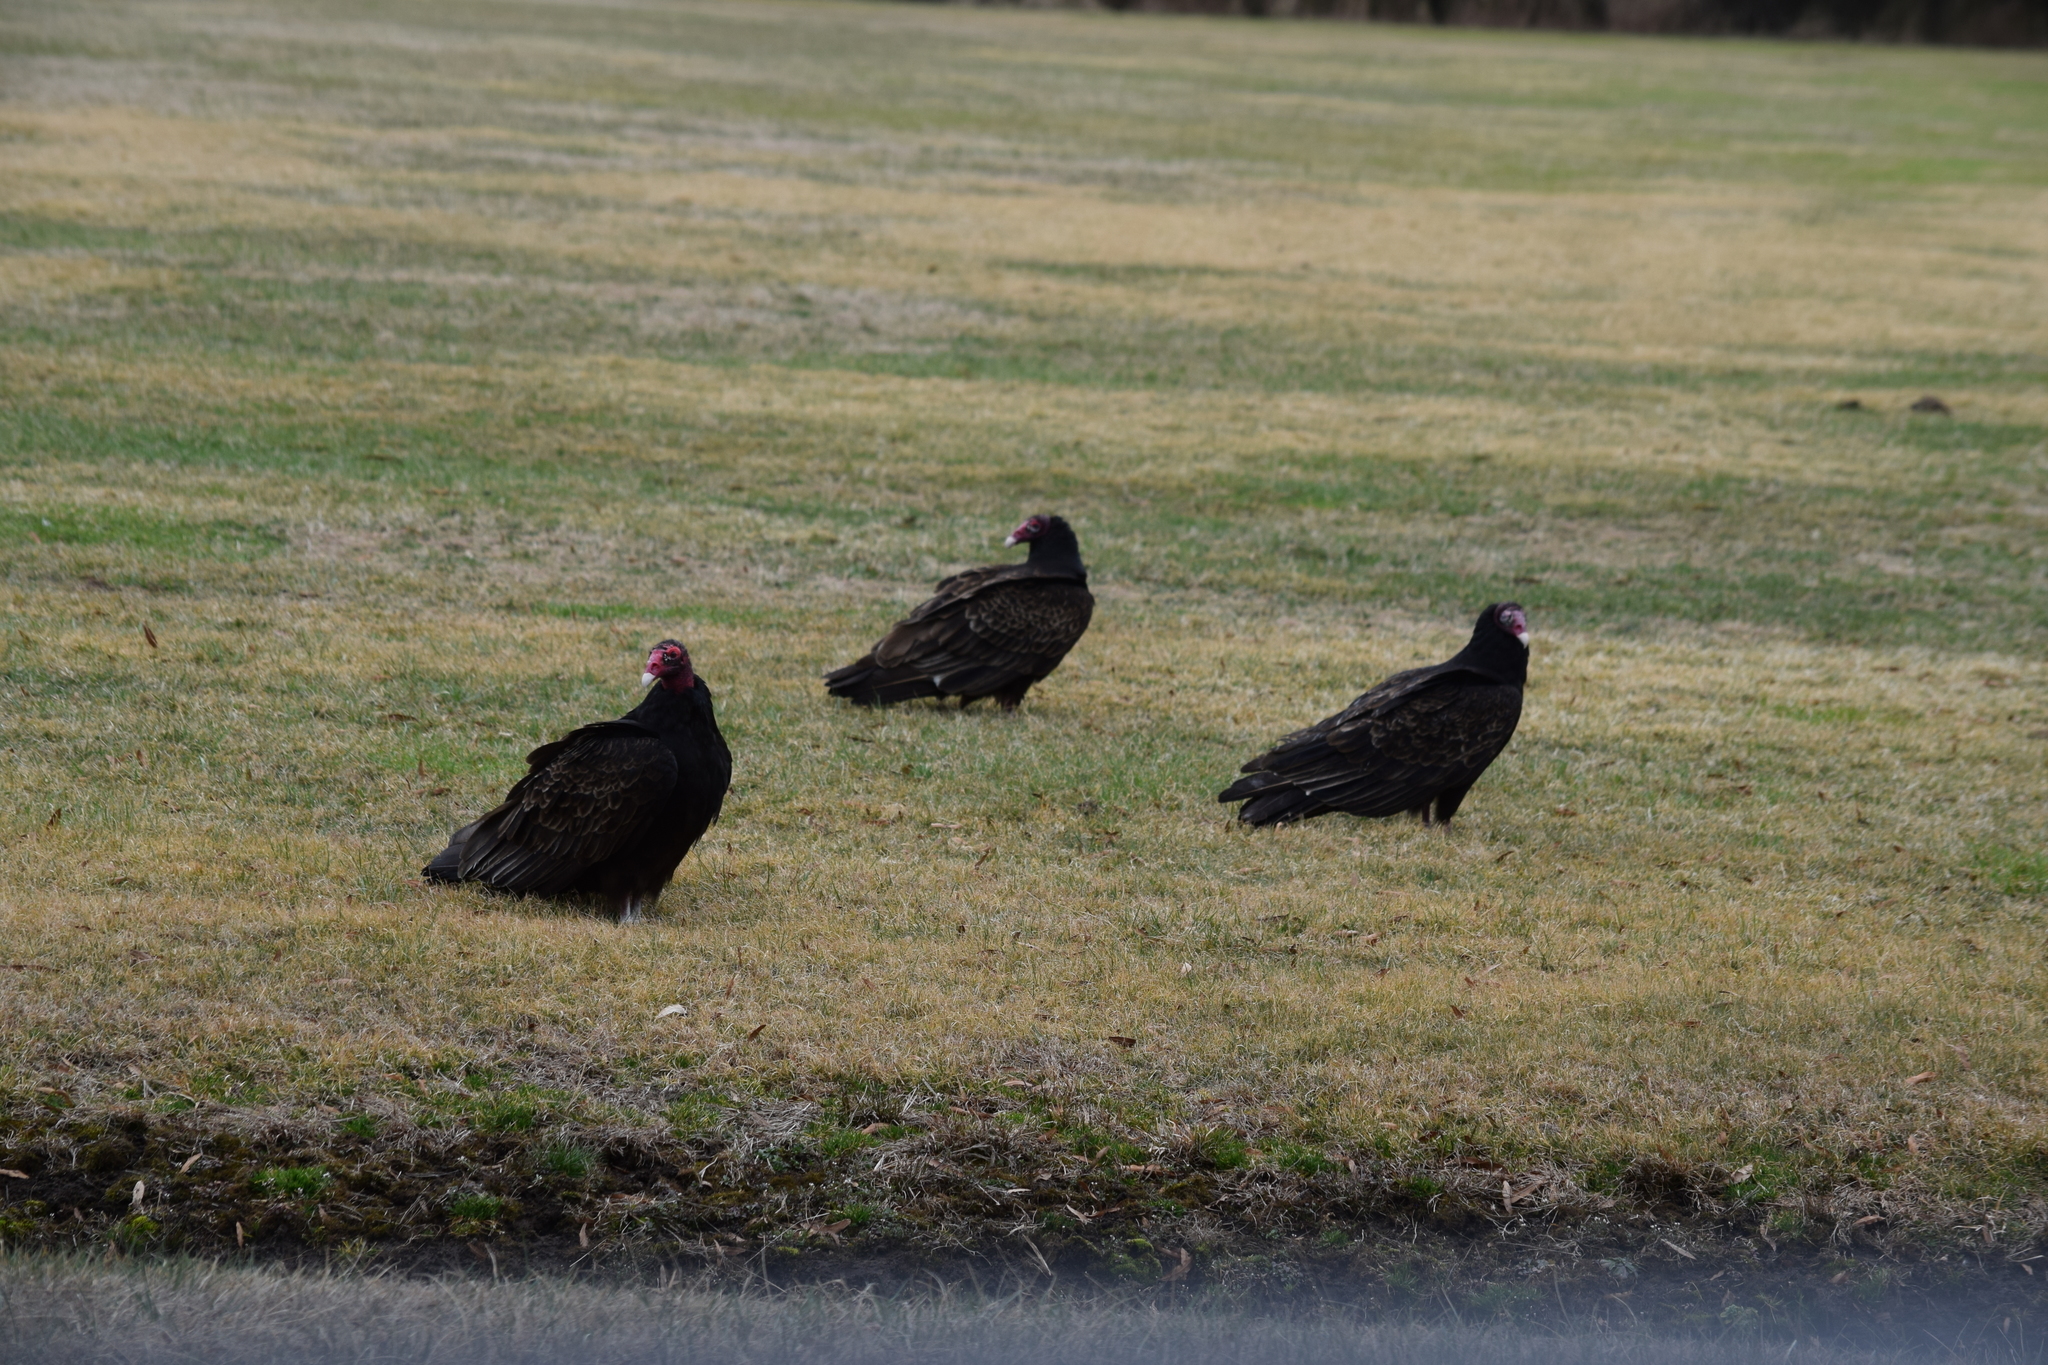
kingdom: Animalia
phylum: Chordata
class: Aves
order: Accipitriformes
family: Cathartidae
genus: Cathartes
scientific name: Cathartes aura
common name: Turkey vulture
